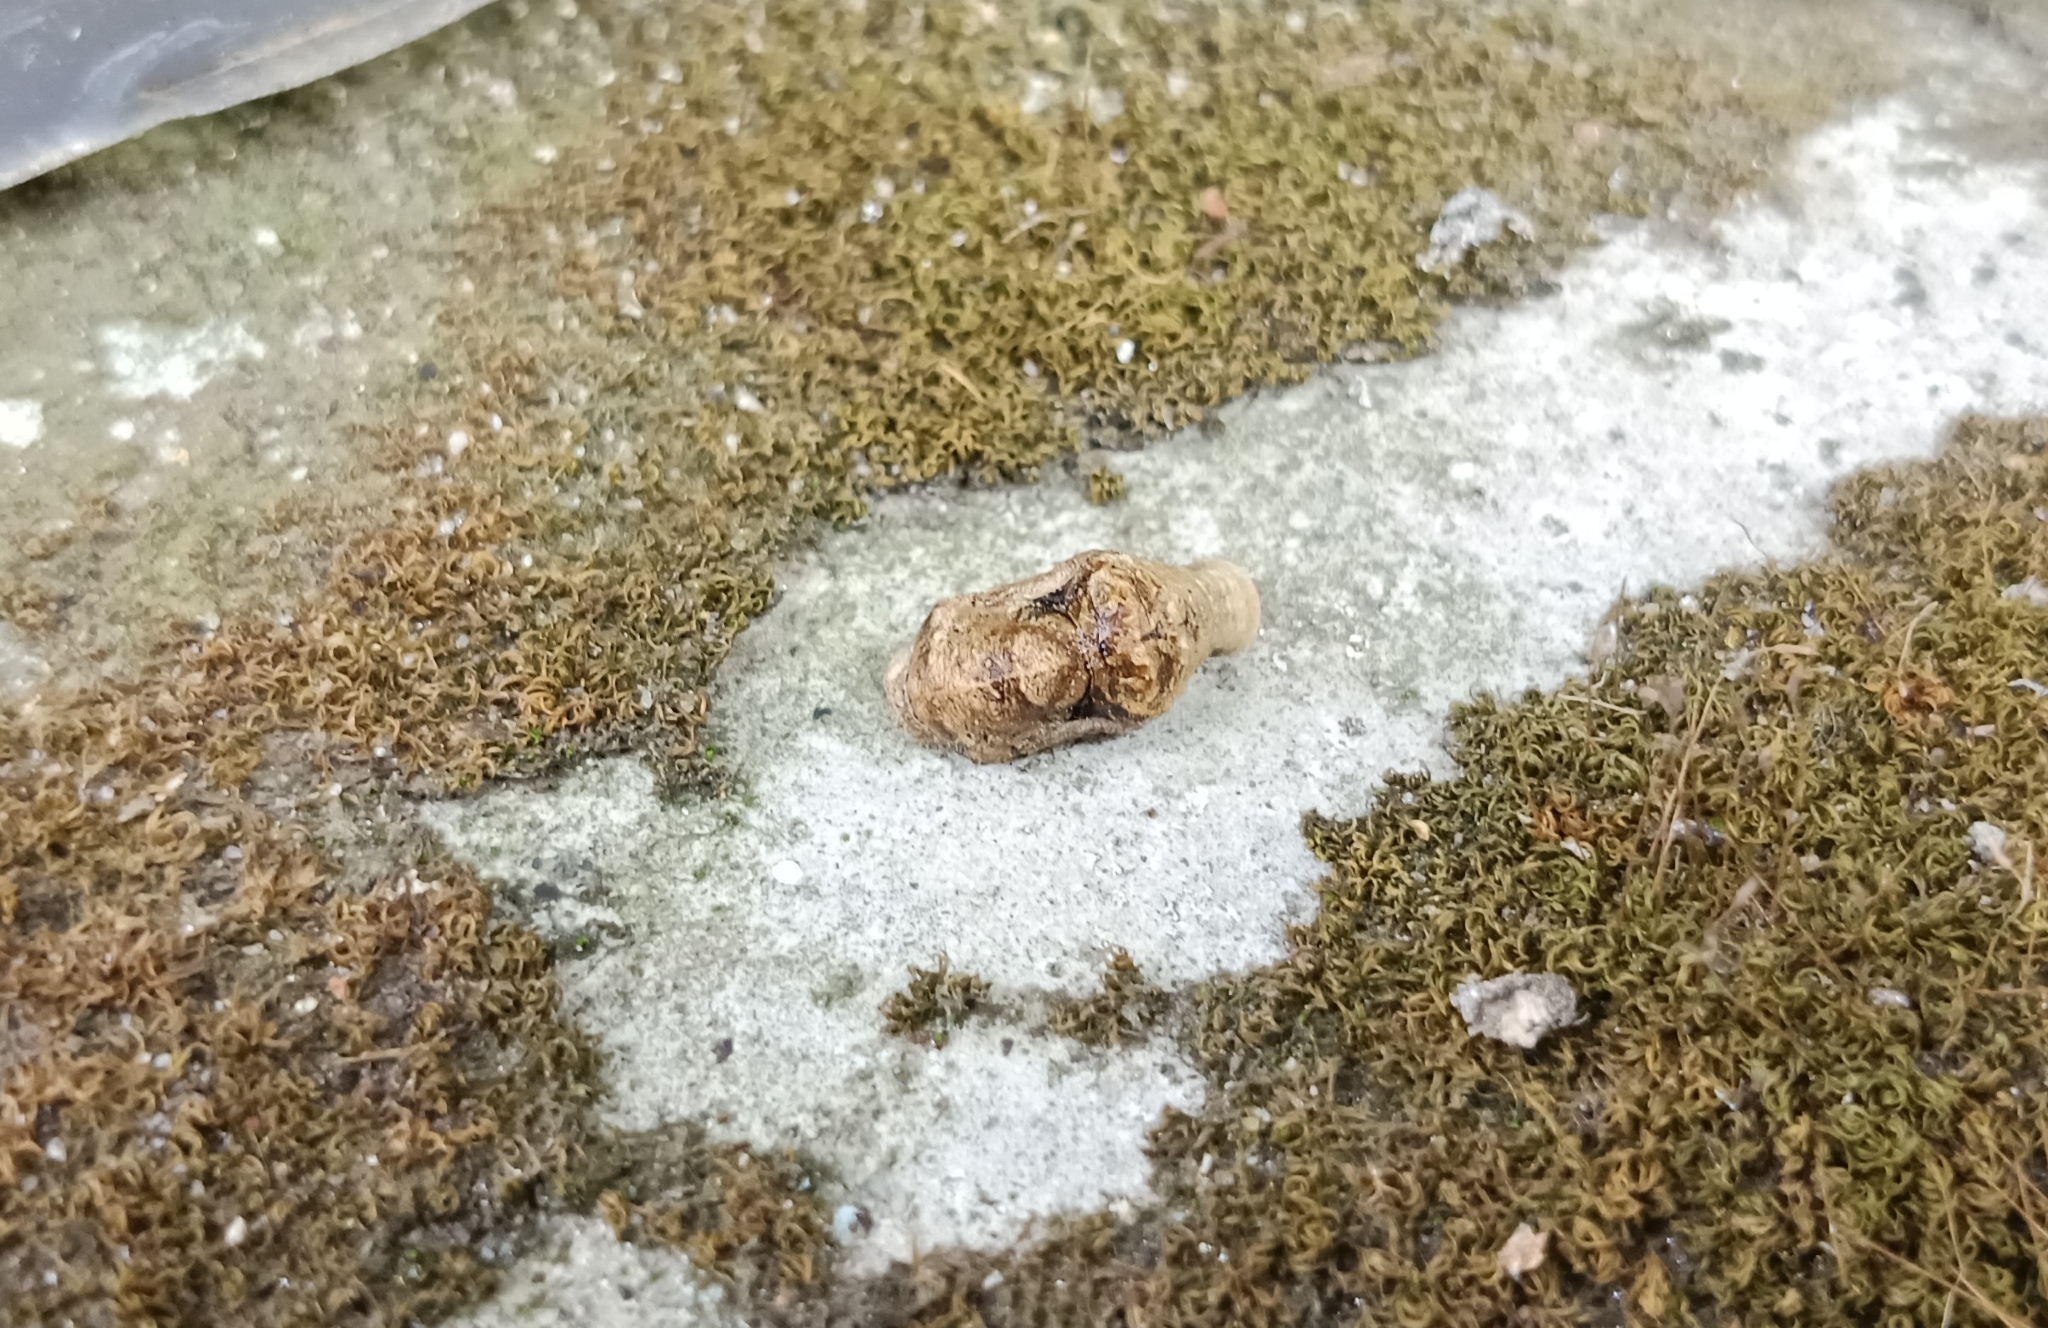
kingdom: Animalia
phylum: Arthropoda
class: Insecta
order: Lepidoptera
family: Lycaenidae
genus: Tajuria
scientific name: Tajuria cippus
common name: Peacock royal
